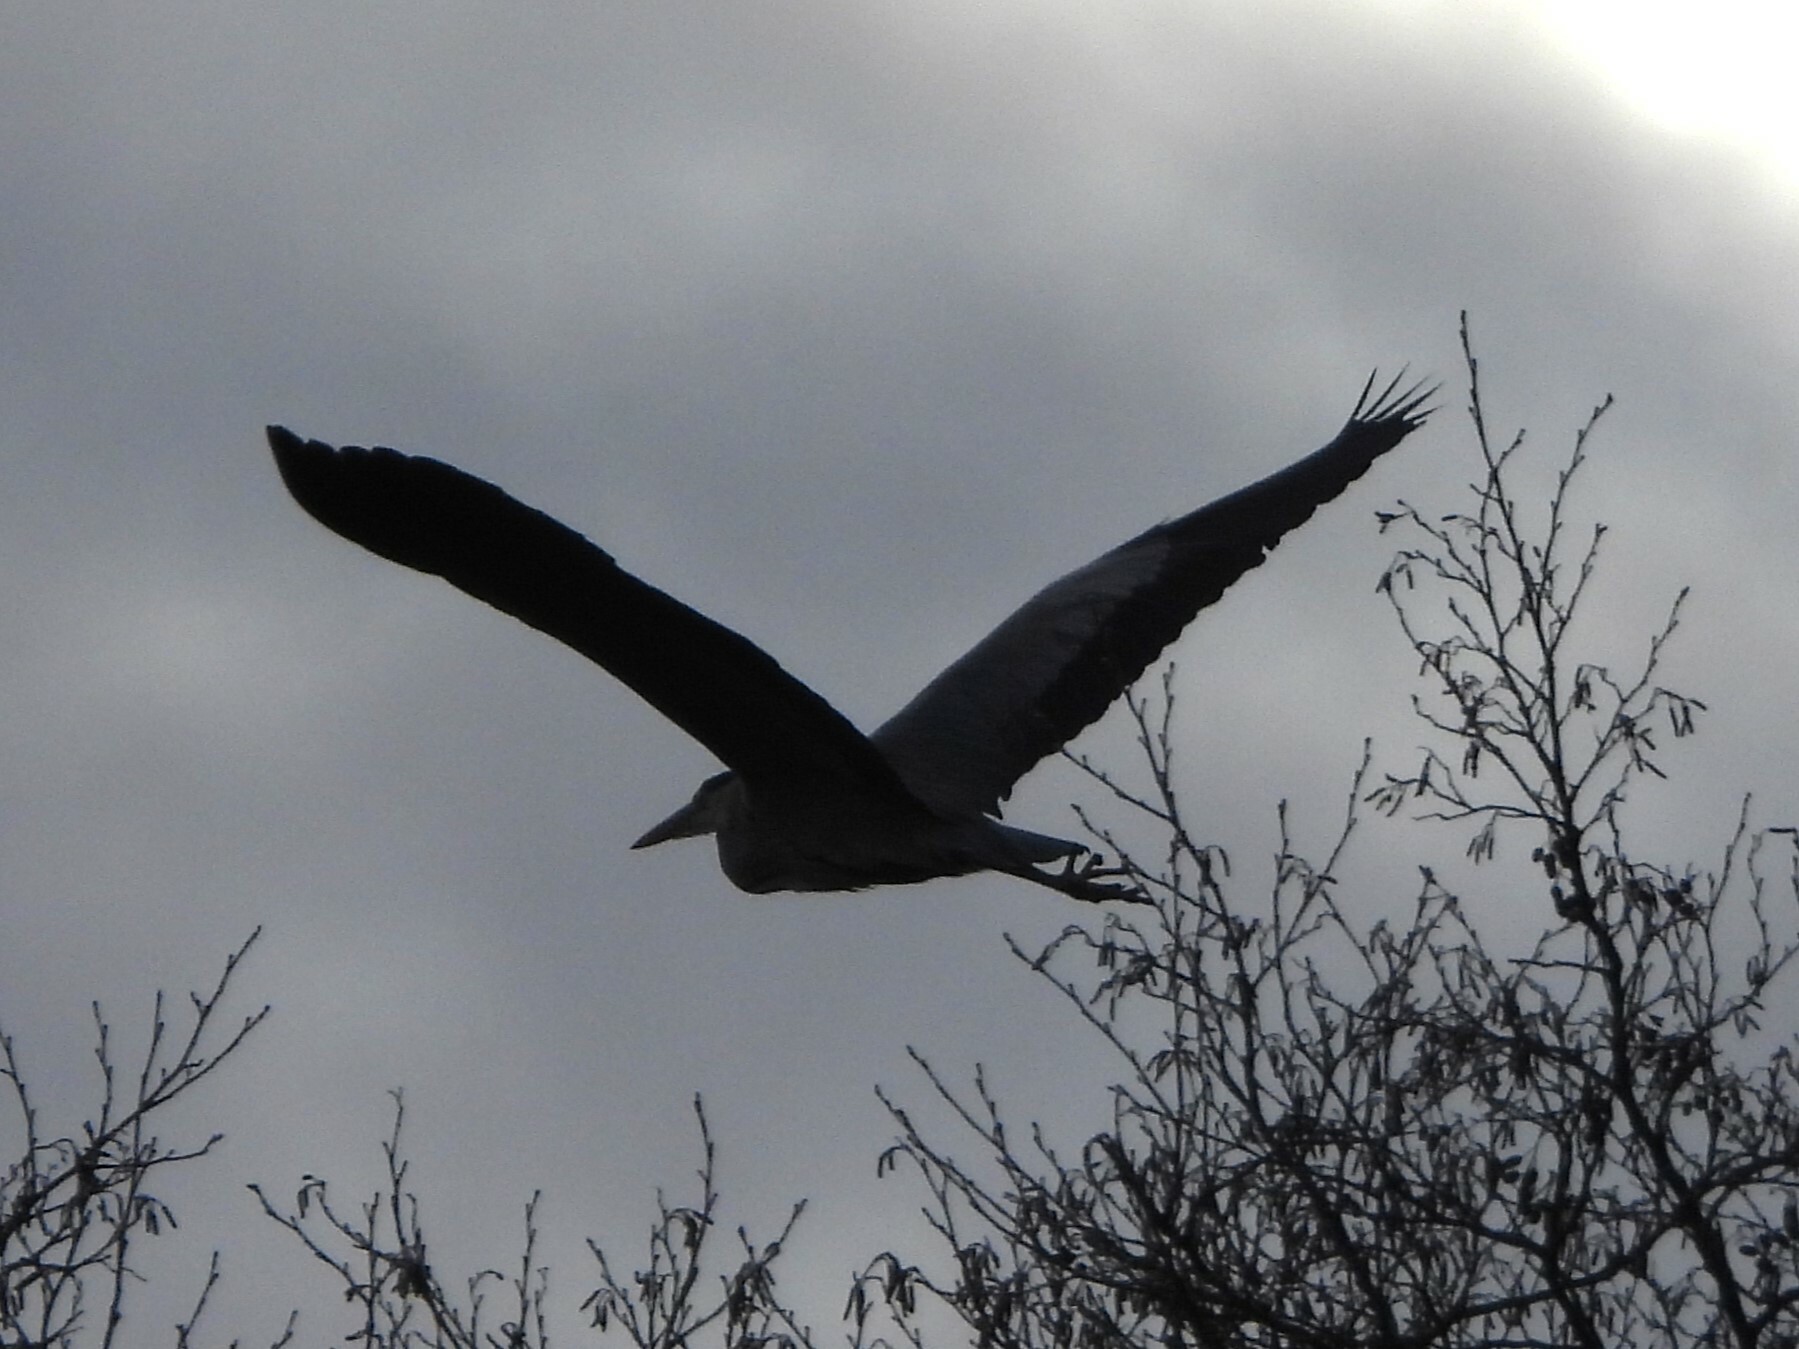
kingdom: Animalia
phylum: Chordata
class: Aves
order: Pelecaniformes
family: Ardeidae
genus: Ardea
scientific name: Ardea cinerea
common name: Grey heron
